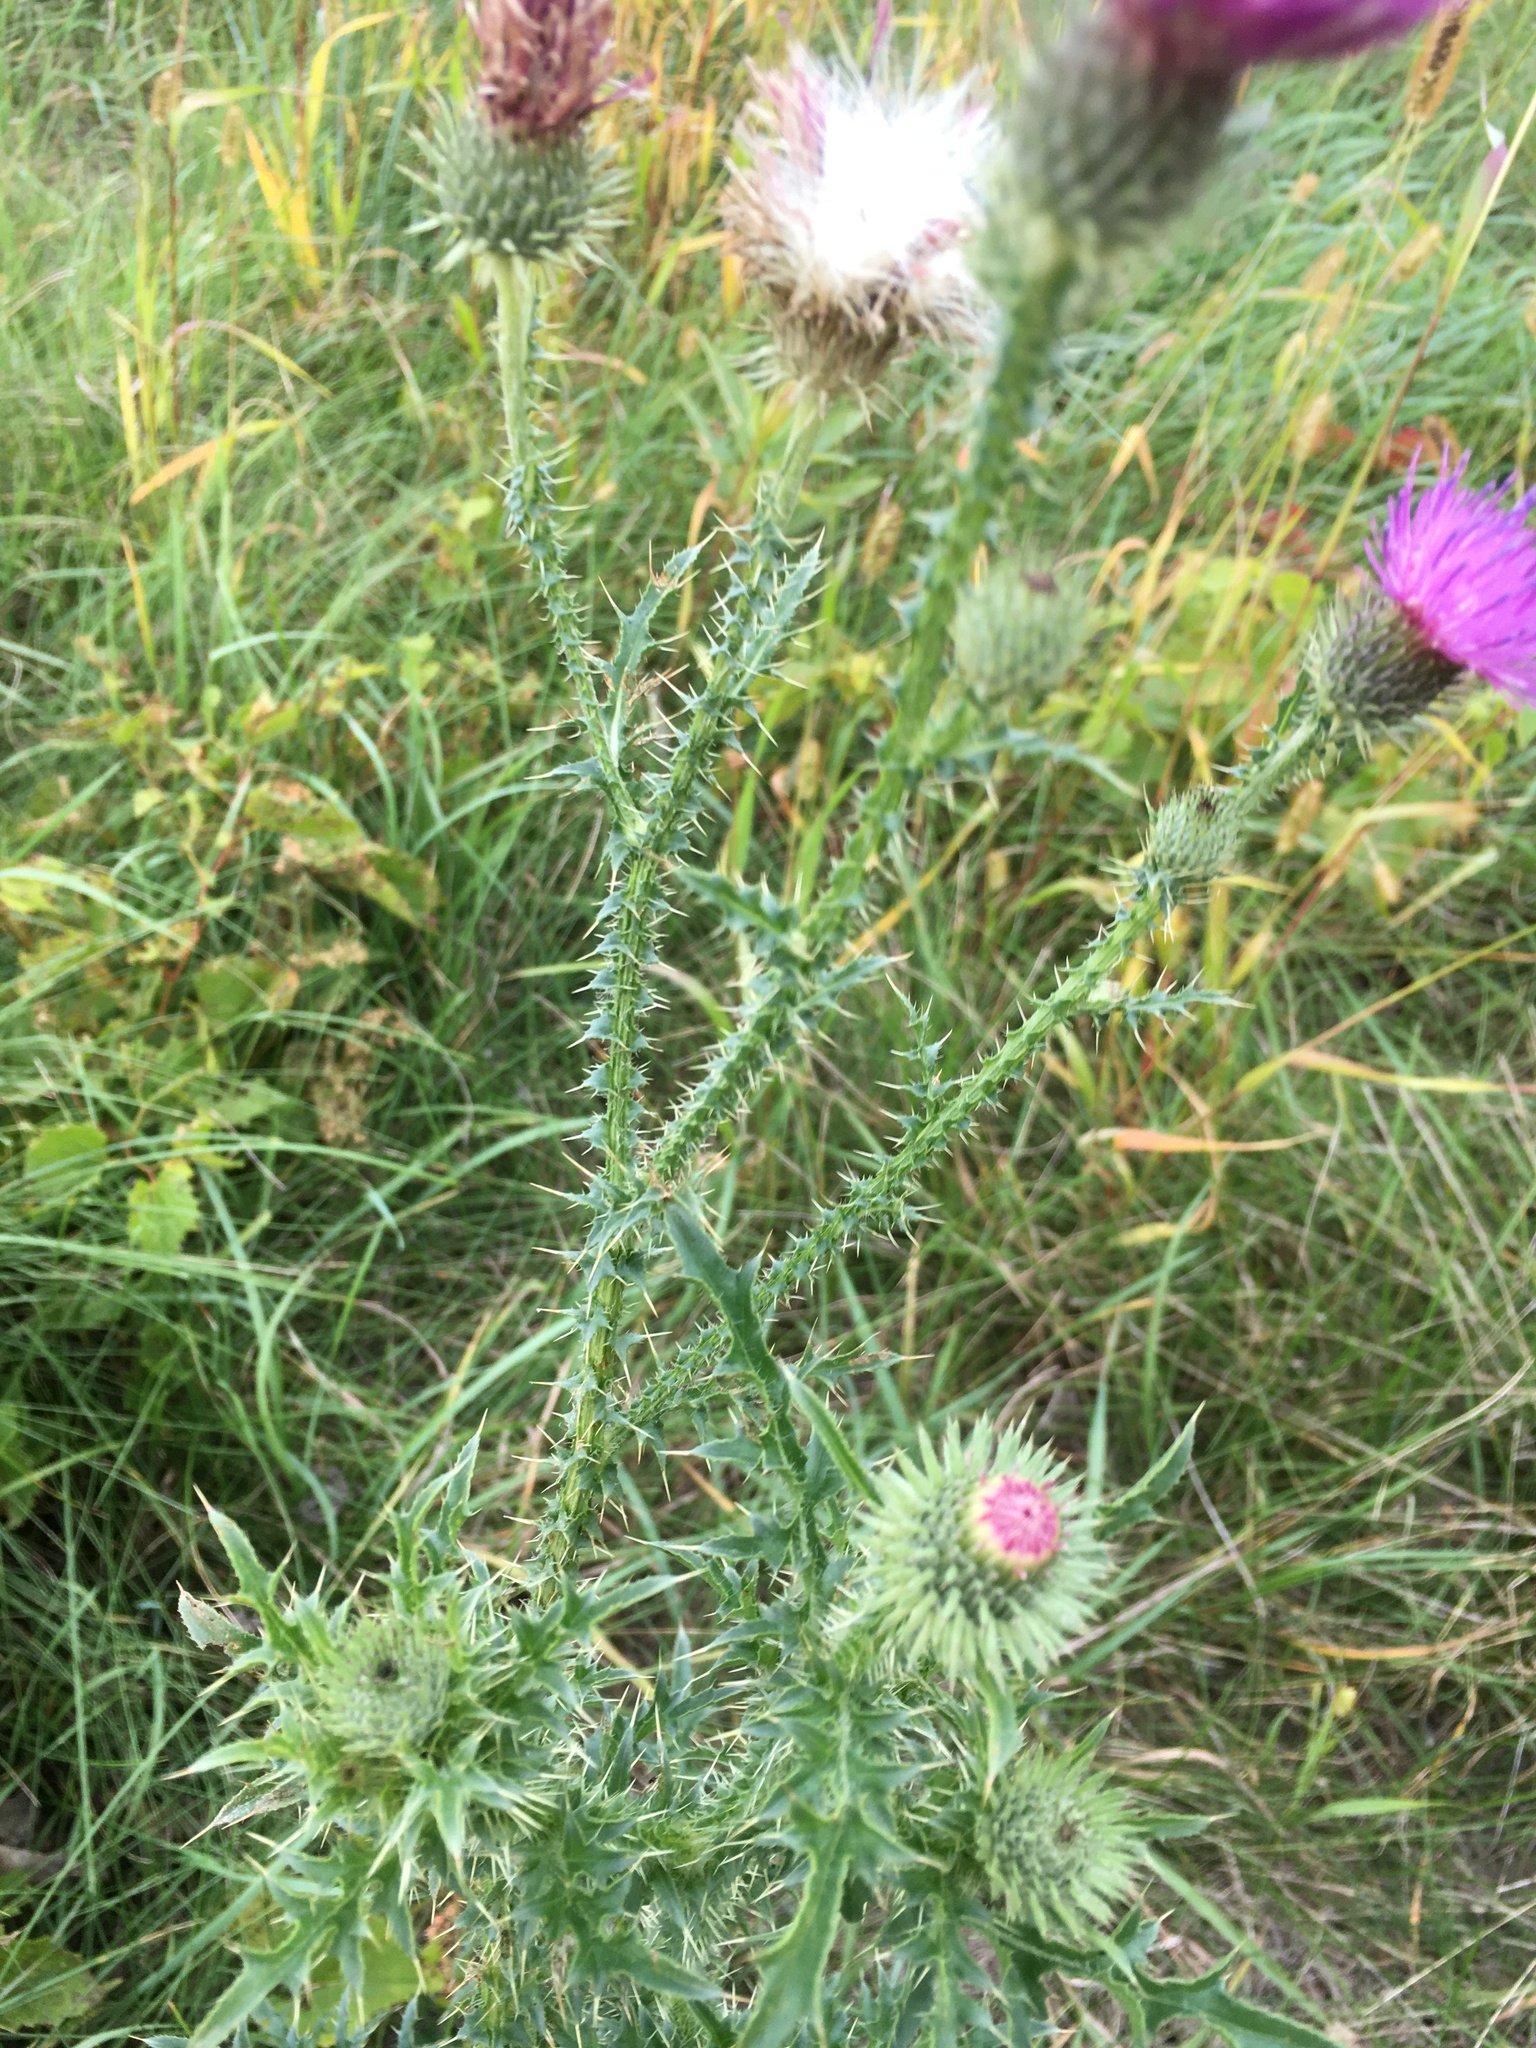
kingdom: Plantae
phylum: Tracheophyta
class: Magnoliopsida
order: Asterales
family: Asteraceae
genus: Carduus
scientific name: Carduus acanthoides
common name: Plumeless thistle
